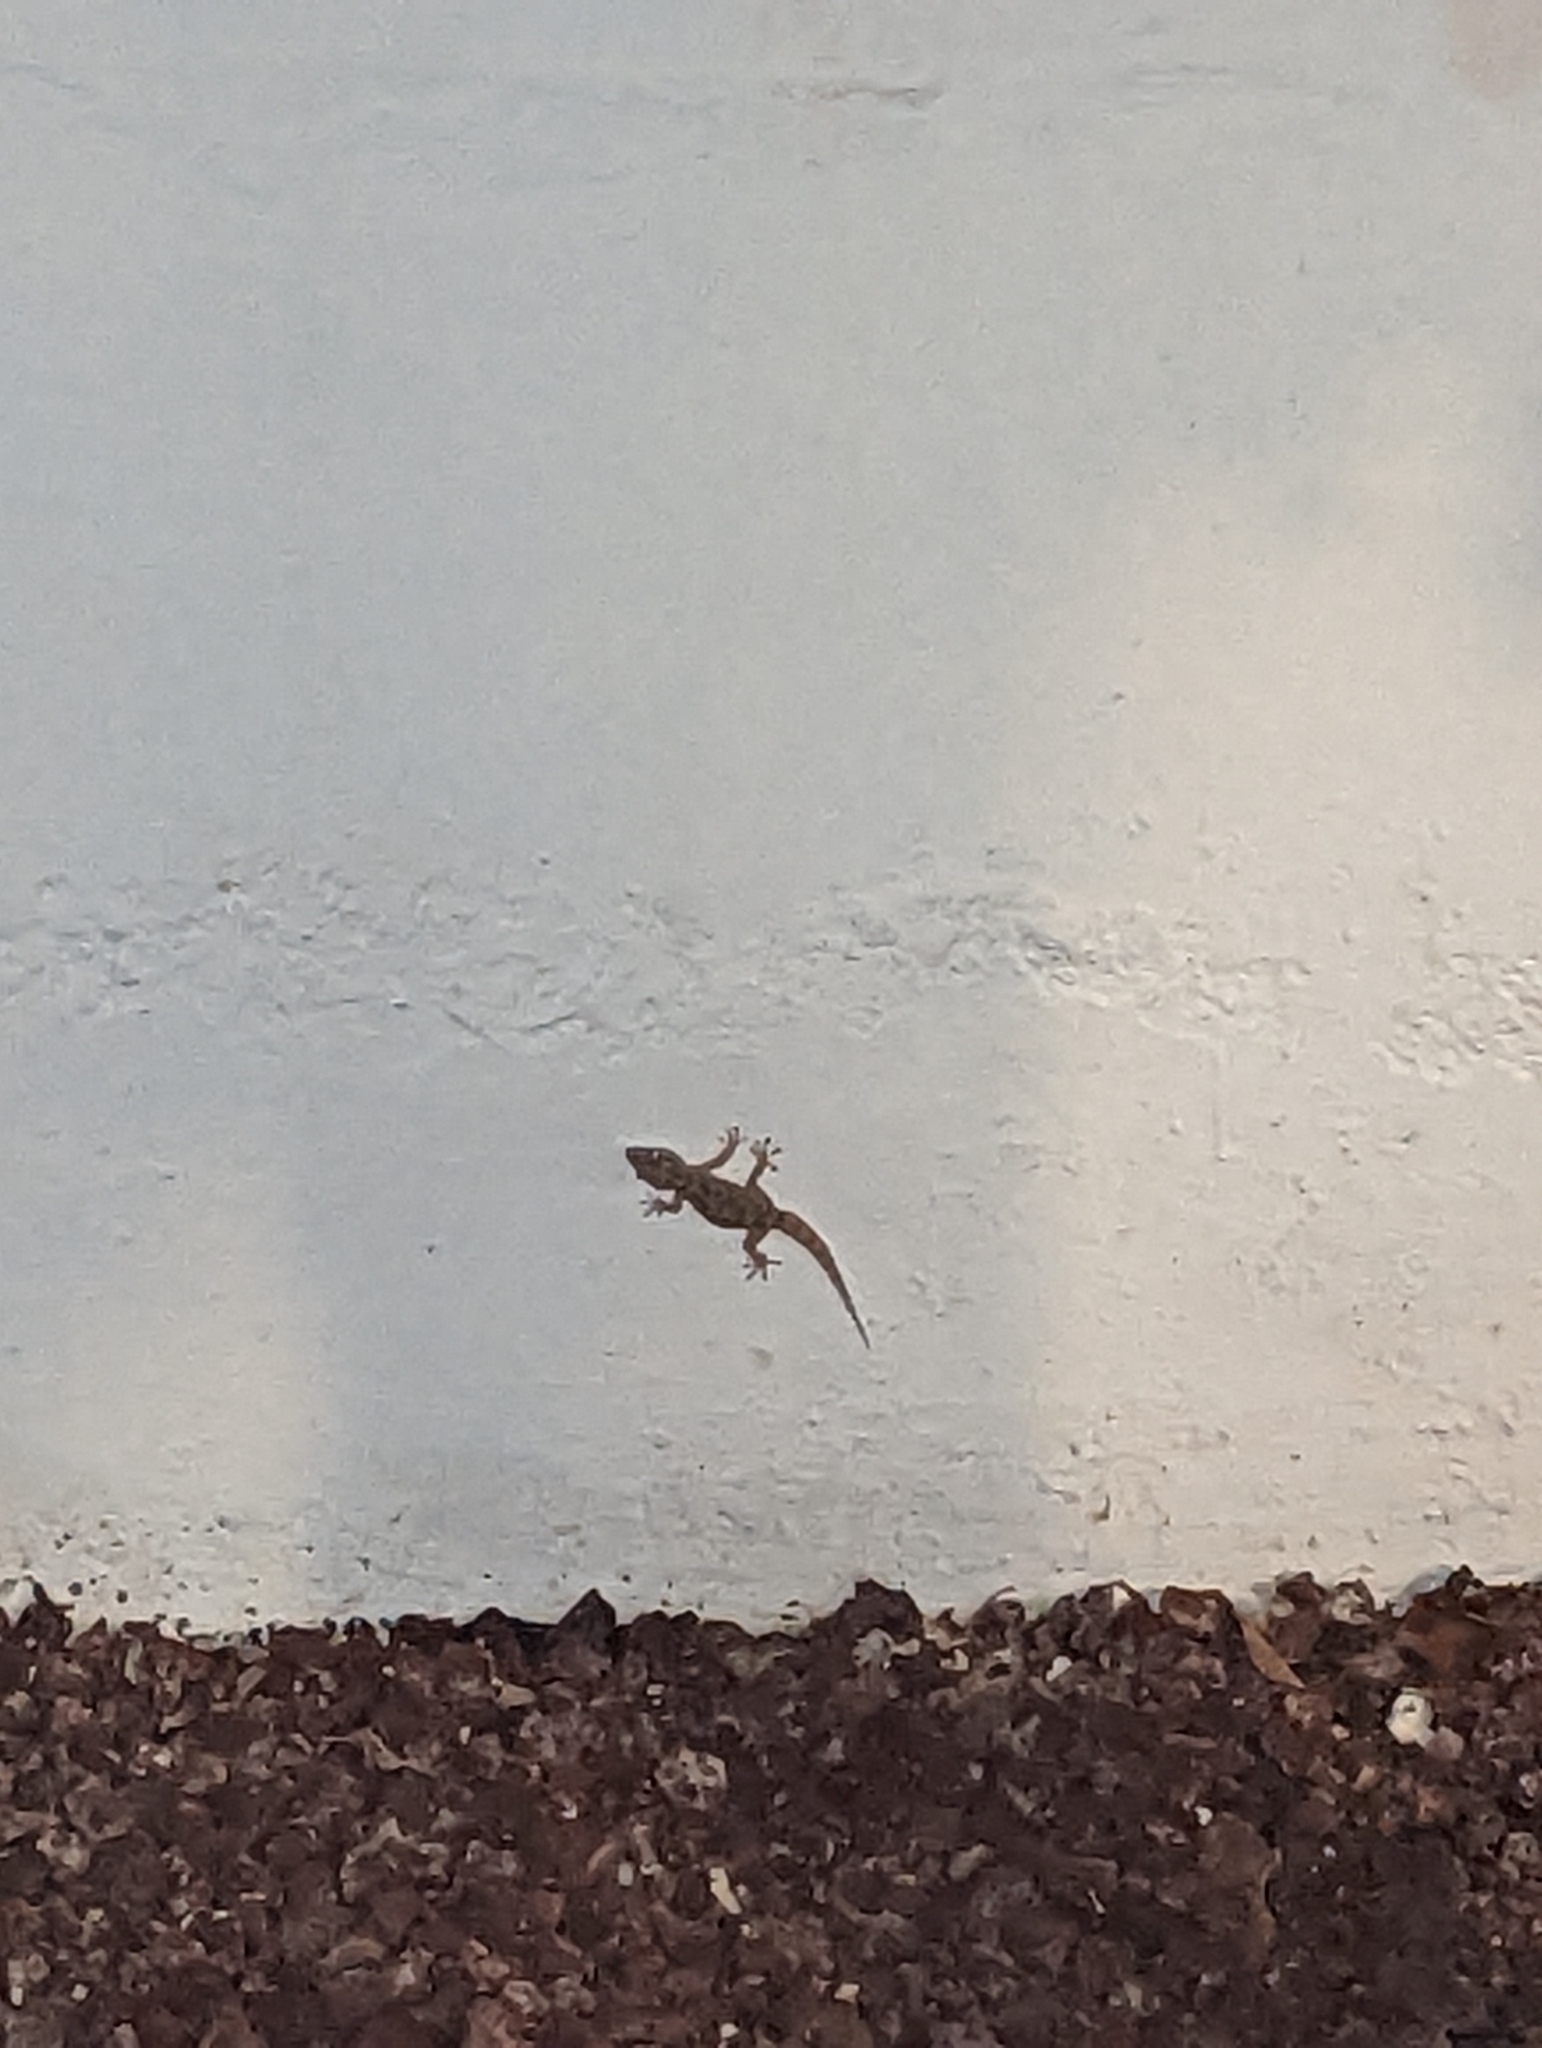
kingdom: Animalia
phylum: Chordata
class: Squamata
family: Phyllodactylidae
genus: Tarentola
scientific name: Tarentola delalandii
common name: Tenerife wall gecko
